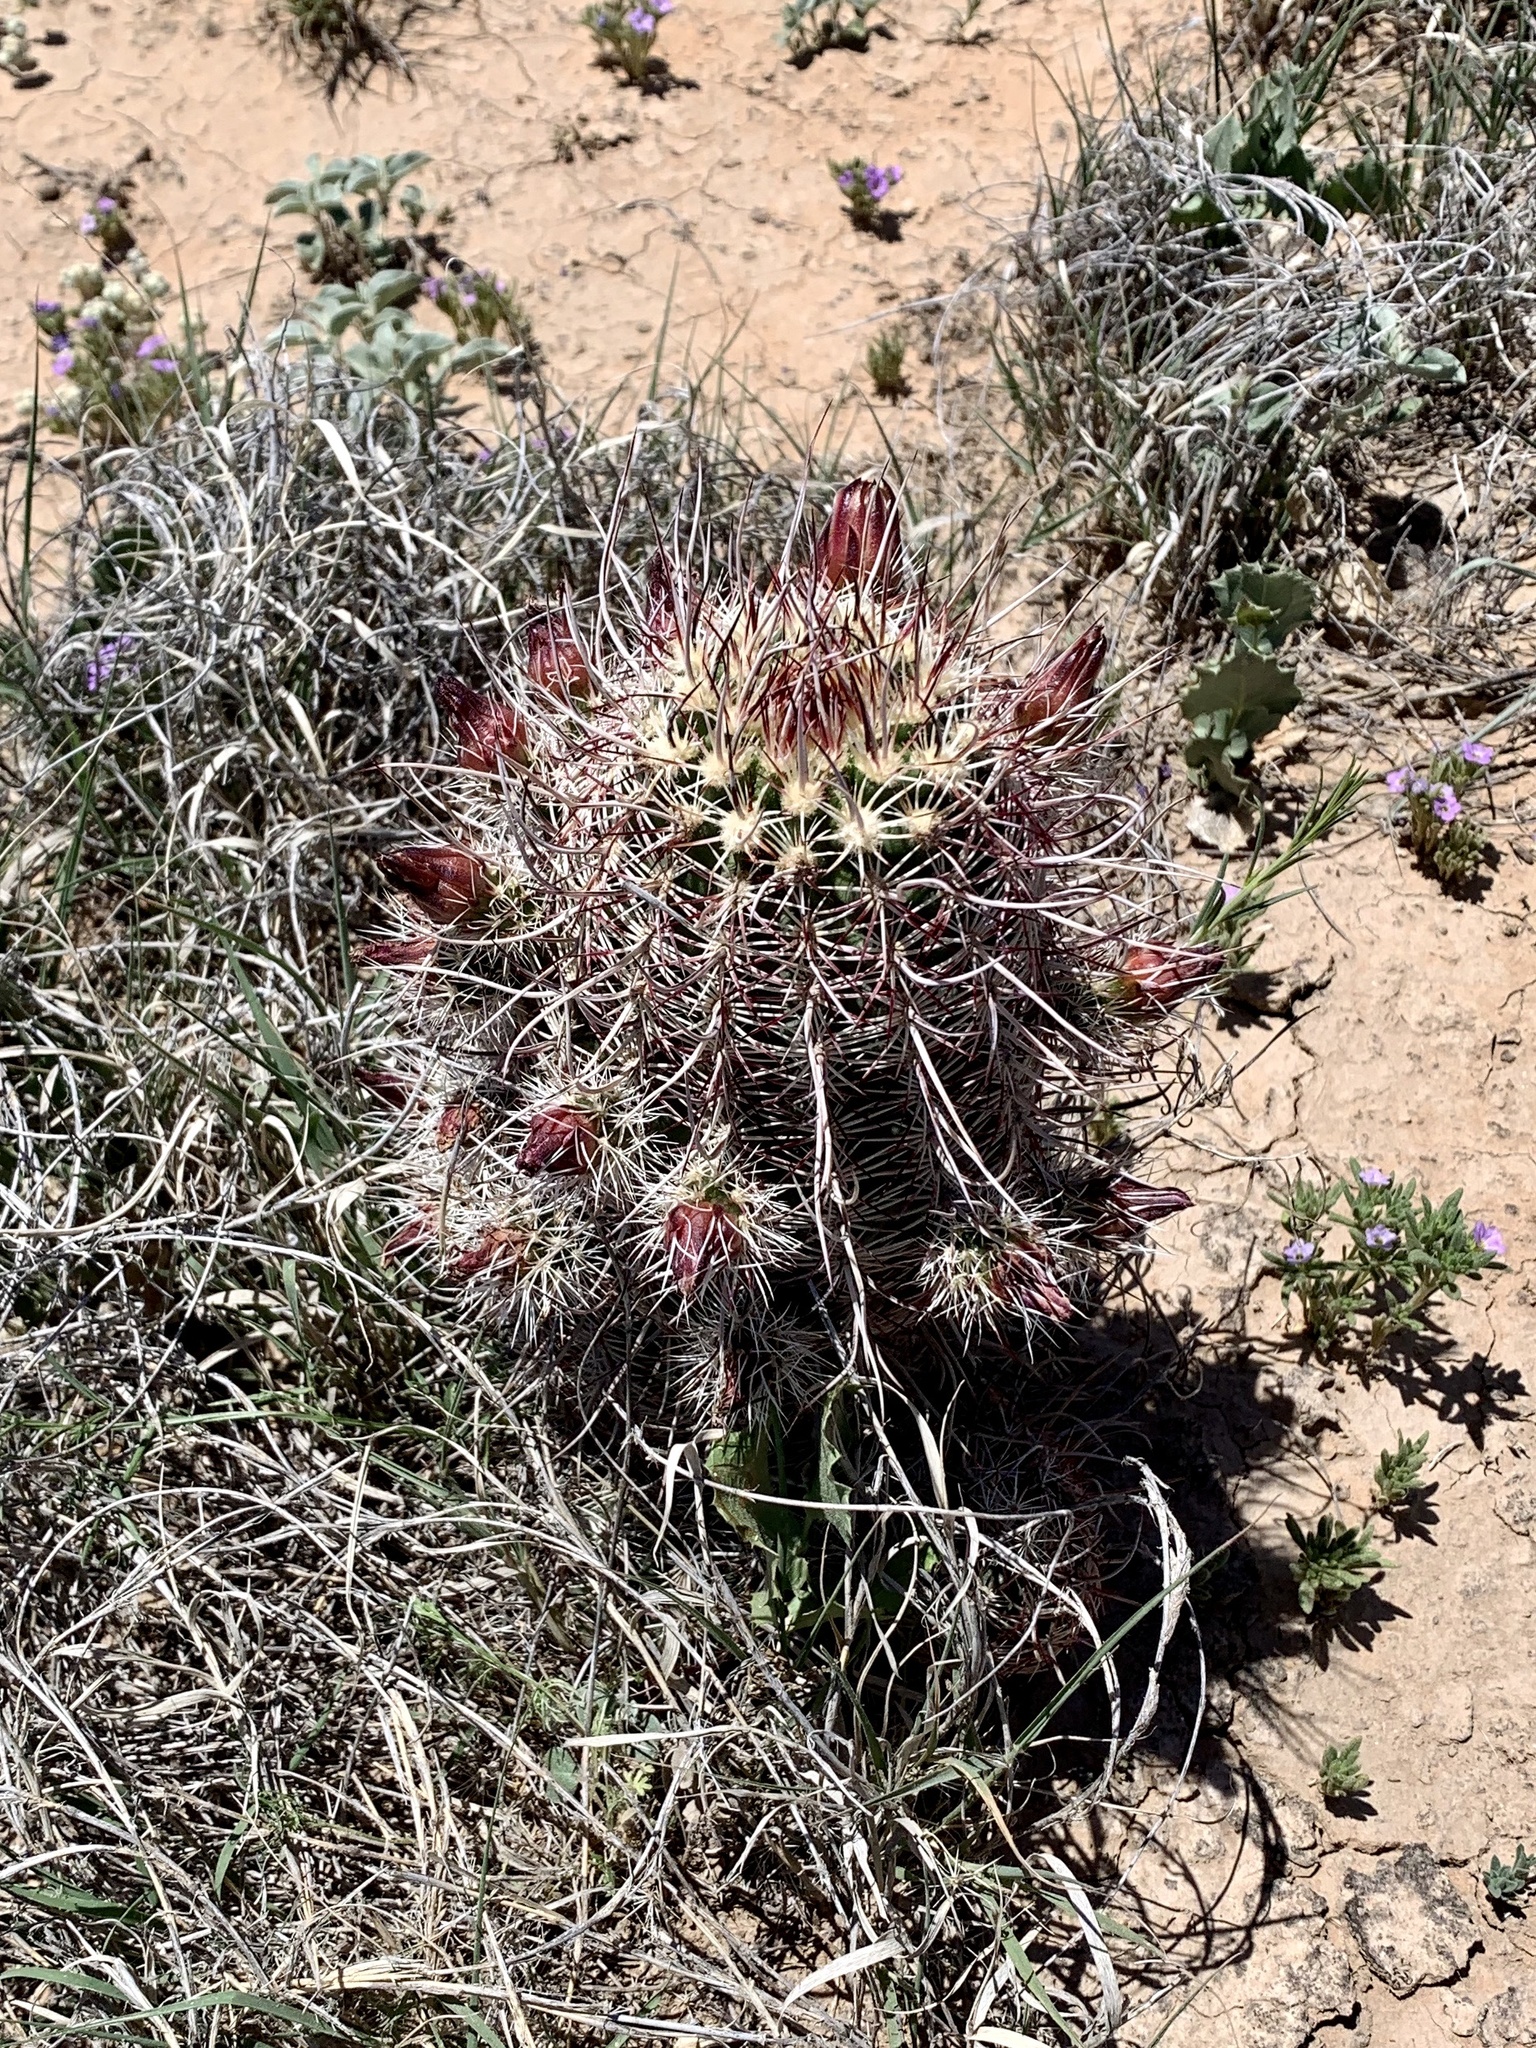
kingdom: Plantae
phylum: Tracheophyta
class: Magnoliopsida
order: Caryophyllales
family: Cactaceae
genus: Echinocereus
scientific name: Echinocereus viridiflorus
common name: Nylon hedgehog cactus
